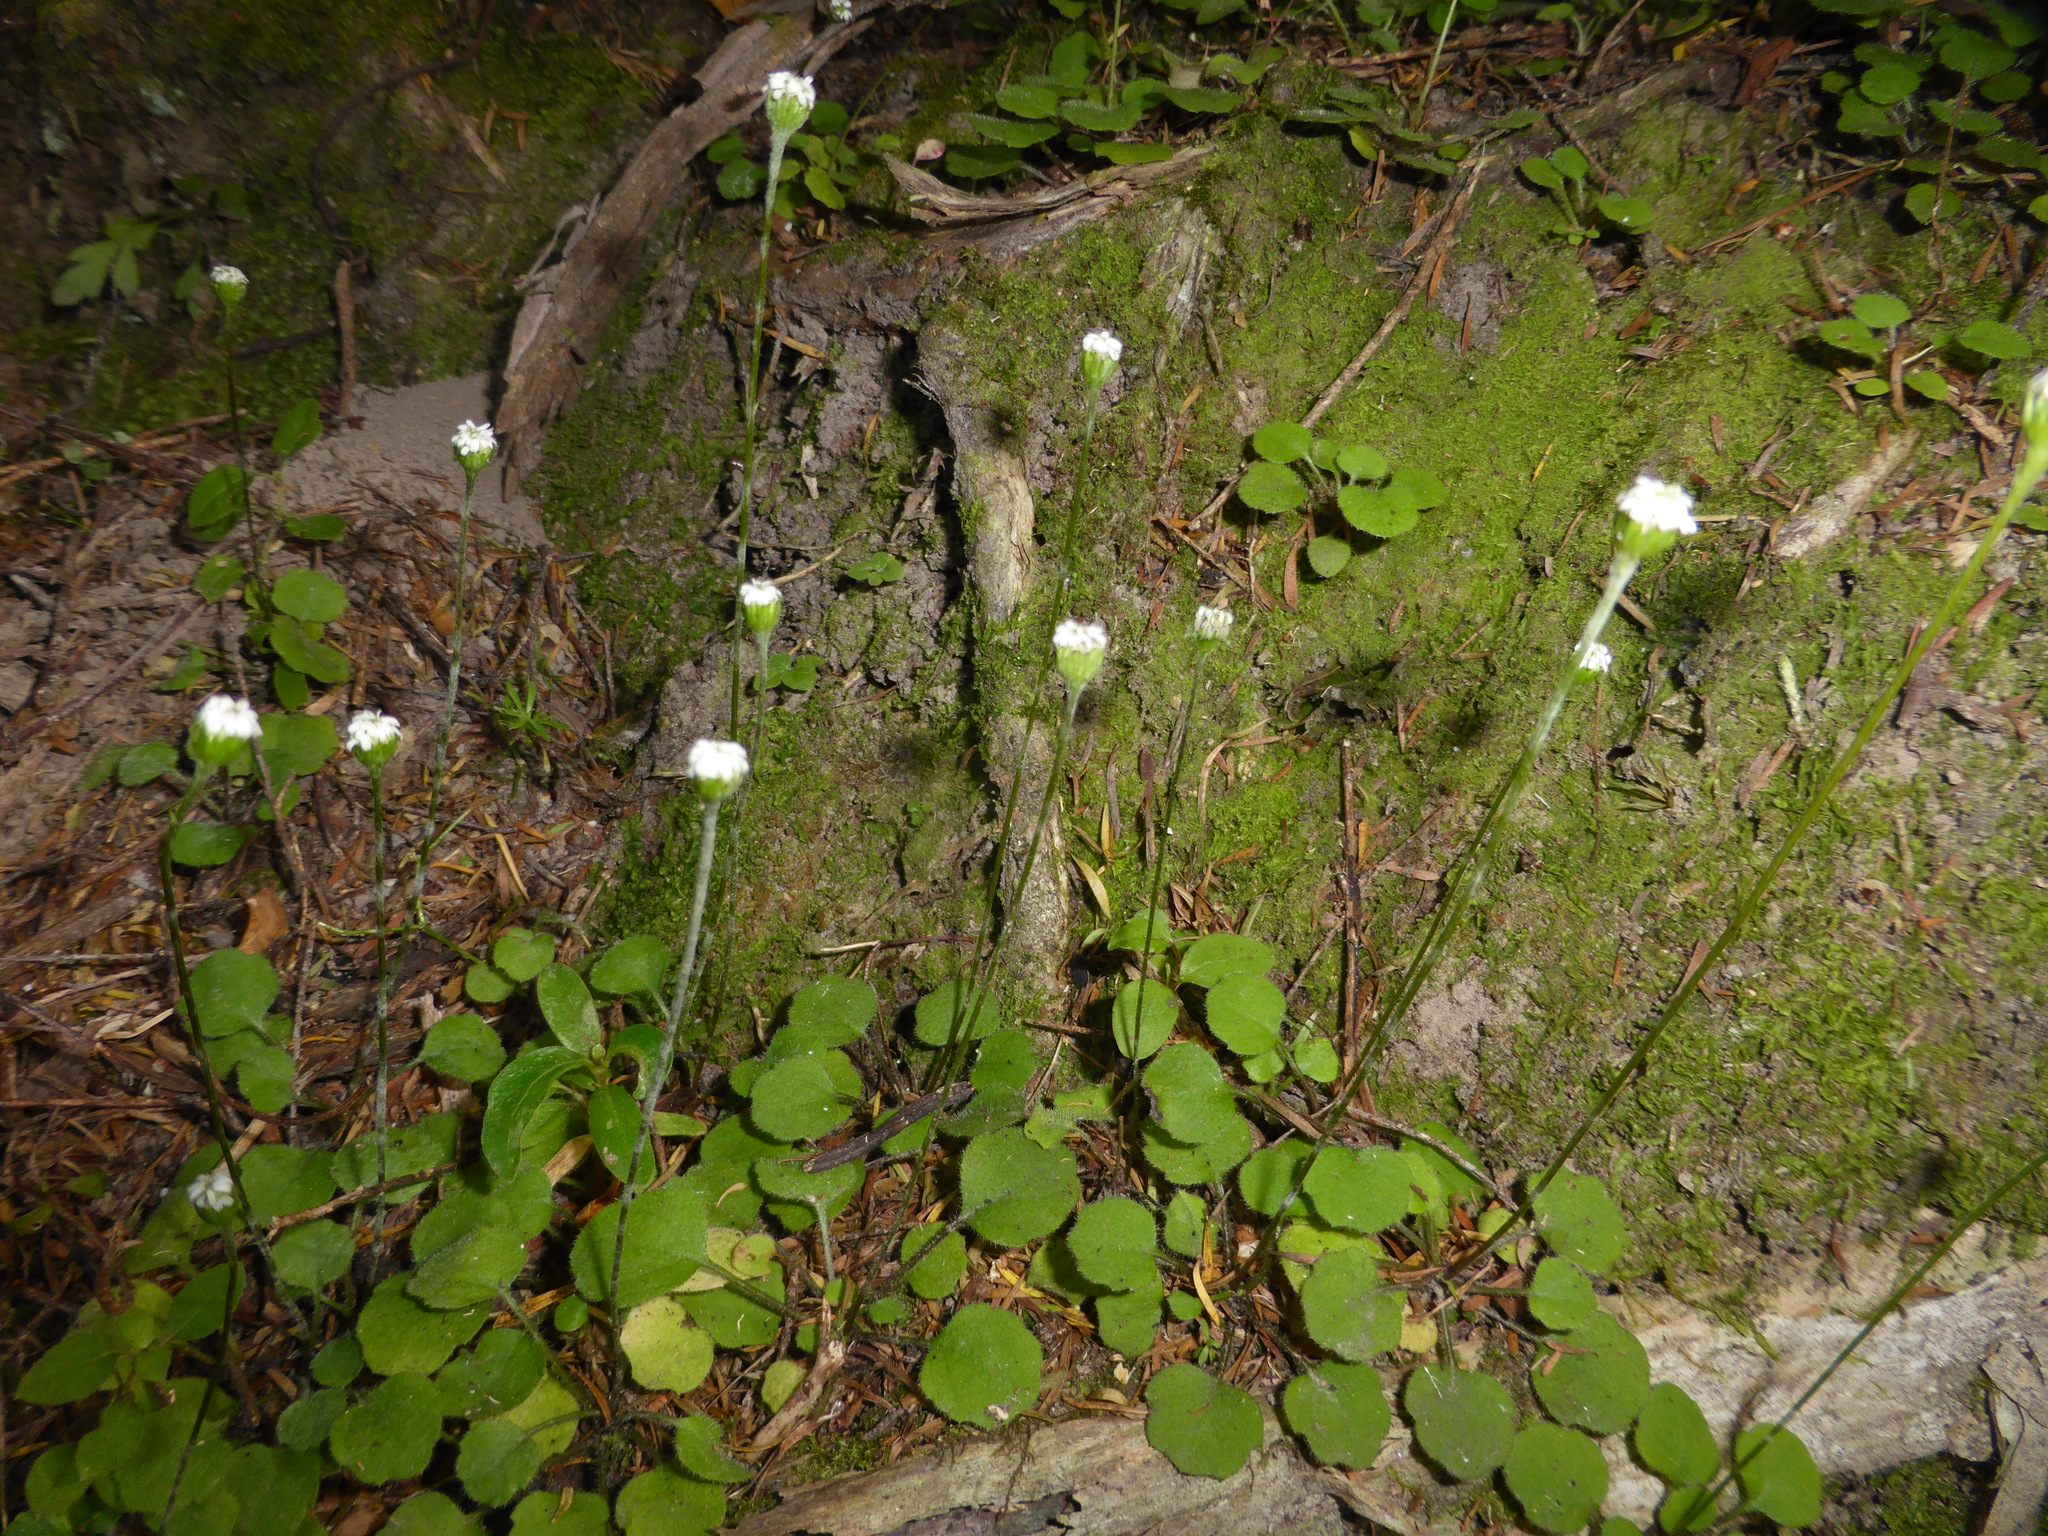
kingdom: Plantae
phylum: Tracheophyta
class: Magnoliopsida
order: Asterales
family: Asteraceae
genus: Lagenophora
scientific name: Lagenophora strangulata
